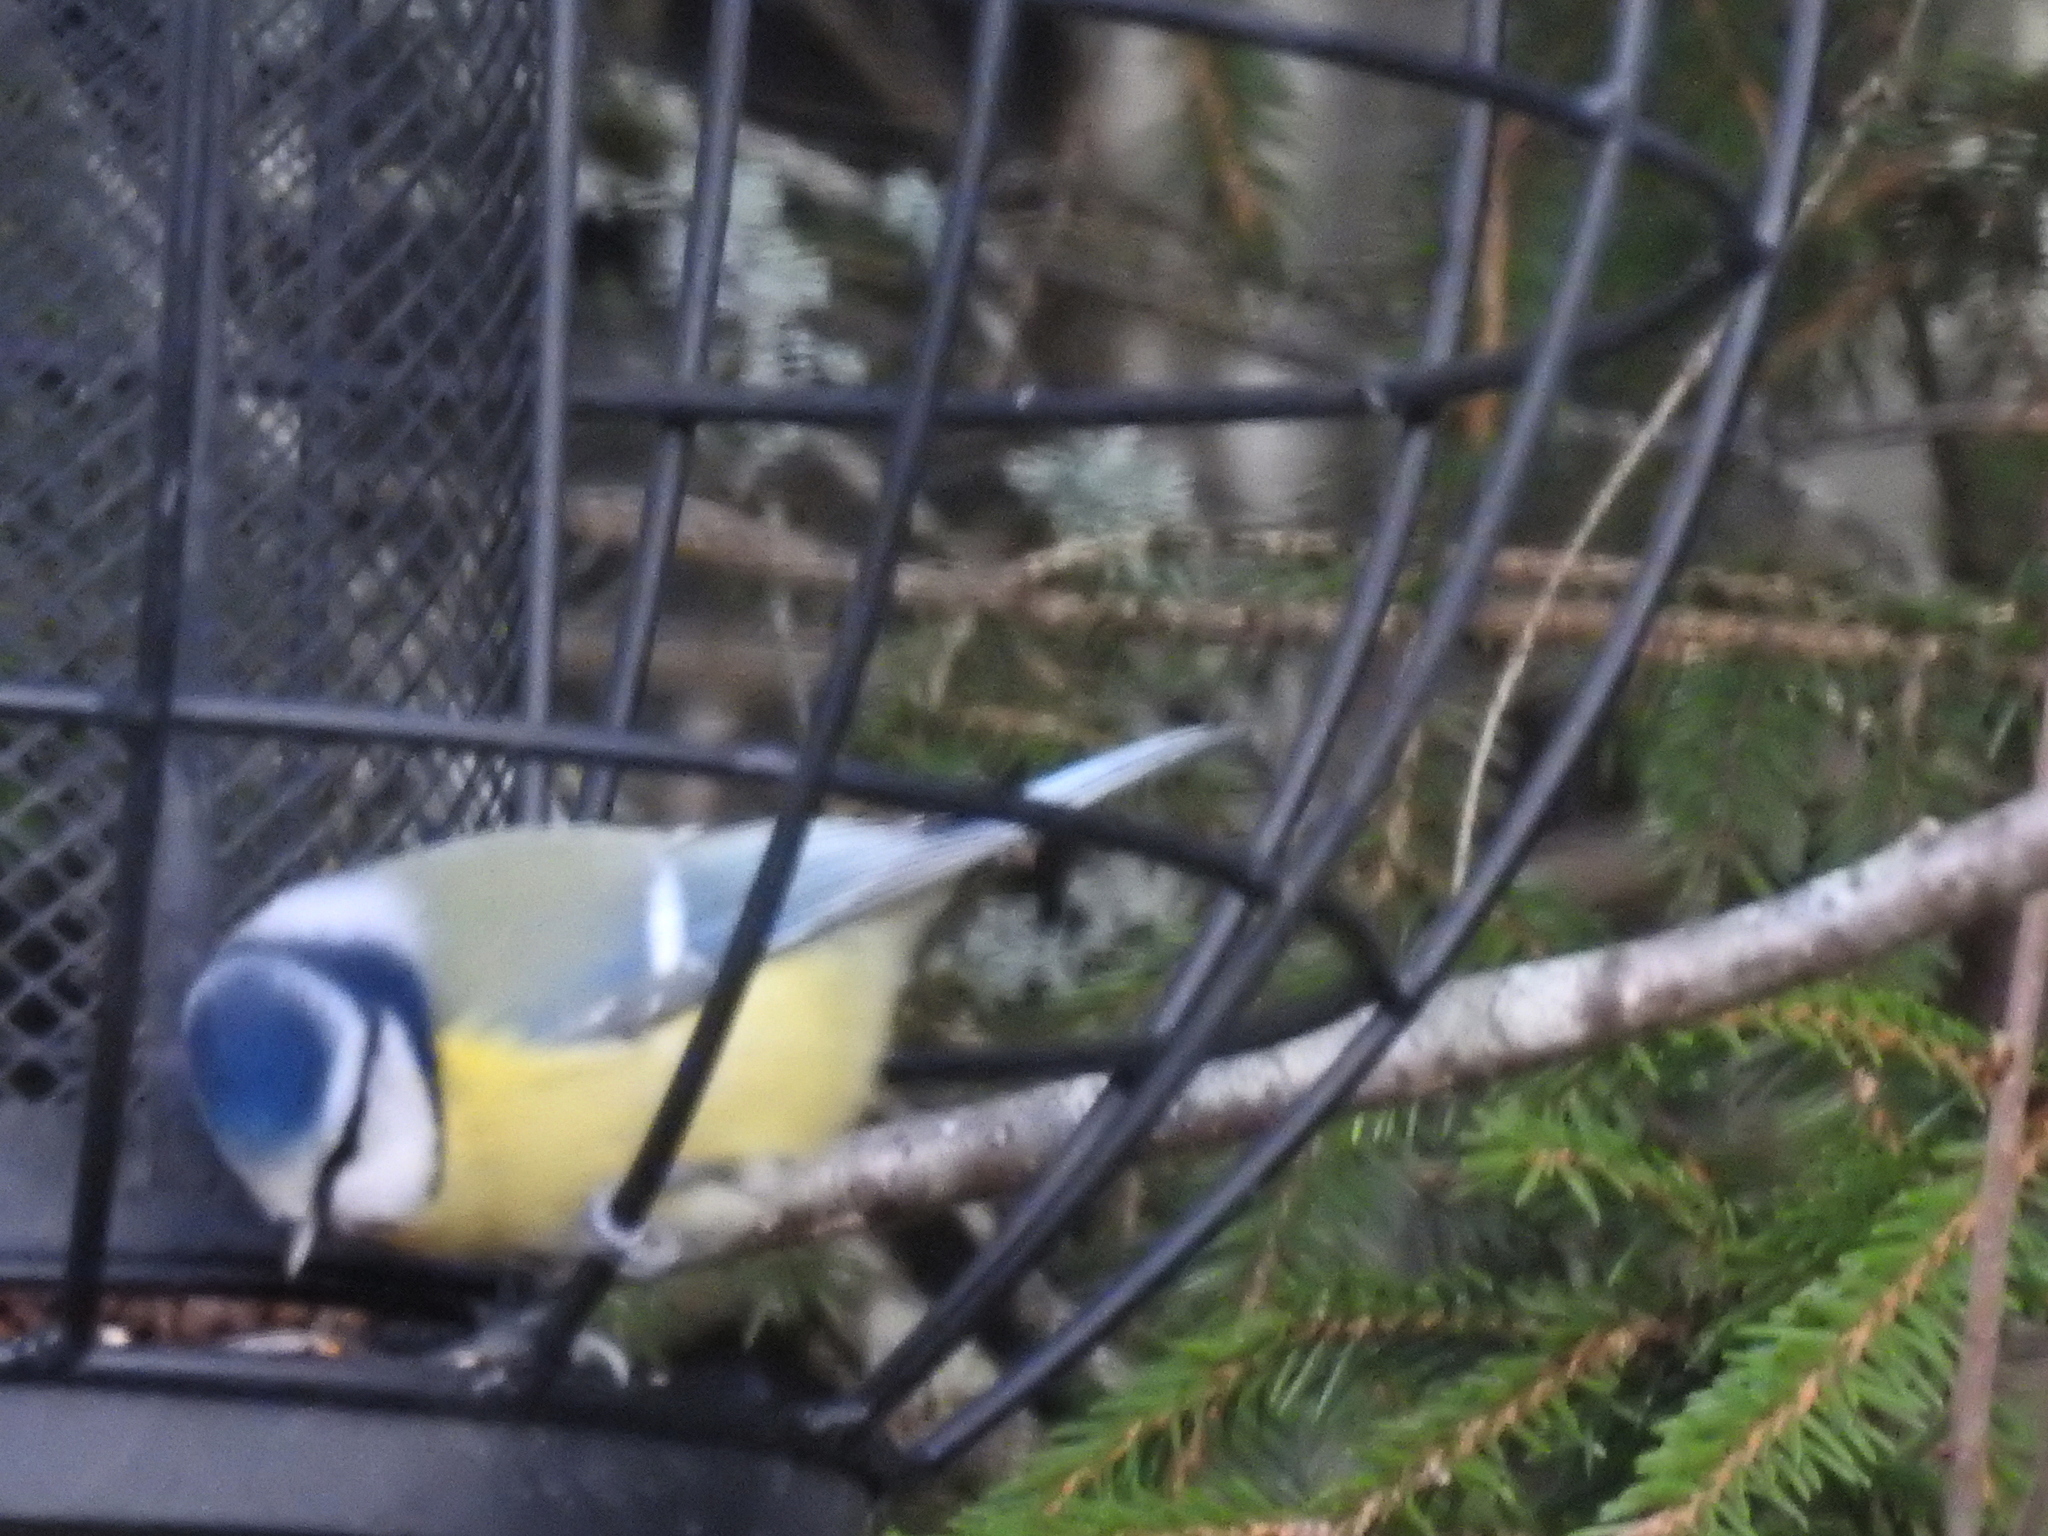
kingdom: Animalia
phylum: Chordata
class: Aves
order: Passeriformes
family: Paridae
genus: Cyanistes
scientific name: Cyanistes caeruleus
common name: Eurasian blue tit
